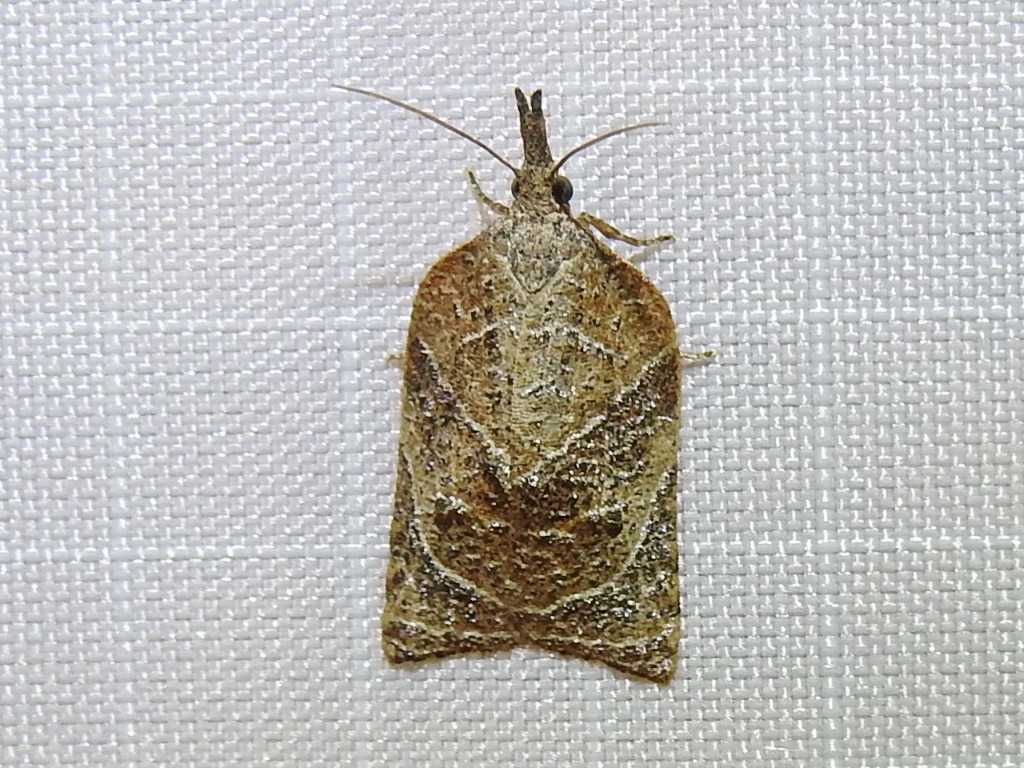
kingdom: Animalia
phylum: Arthropoda
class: Insecta
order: Lepidoptera
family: Tortricidae
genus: Platynota
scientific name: Platynota rostrana
